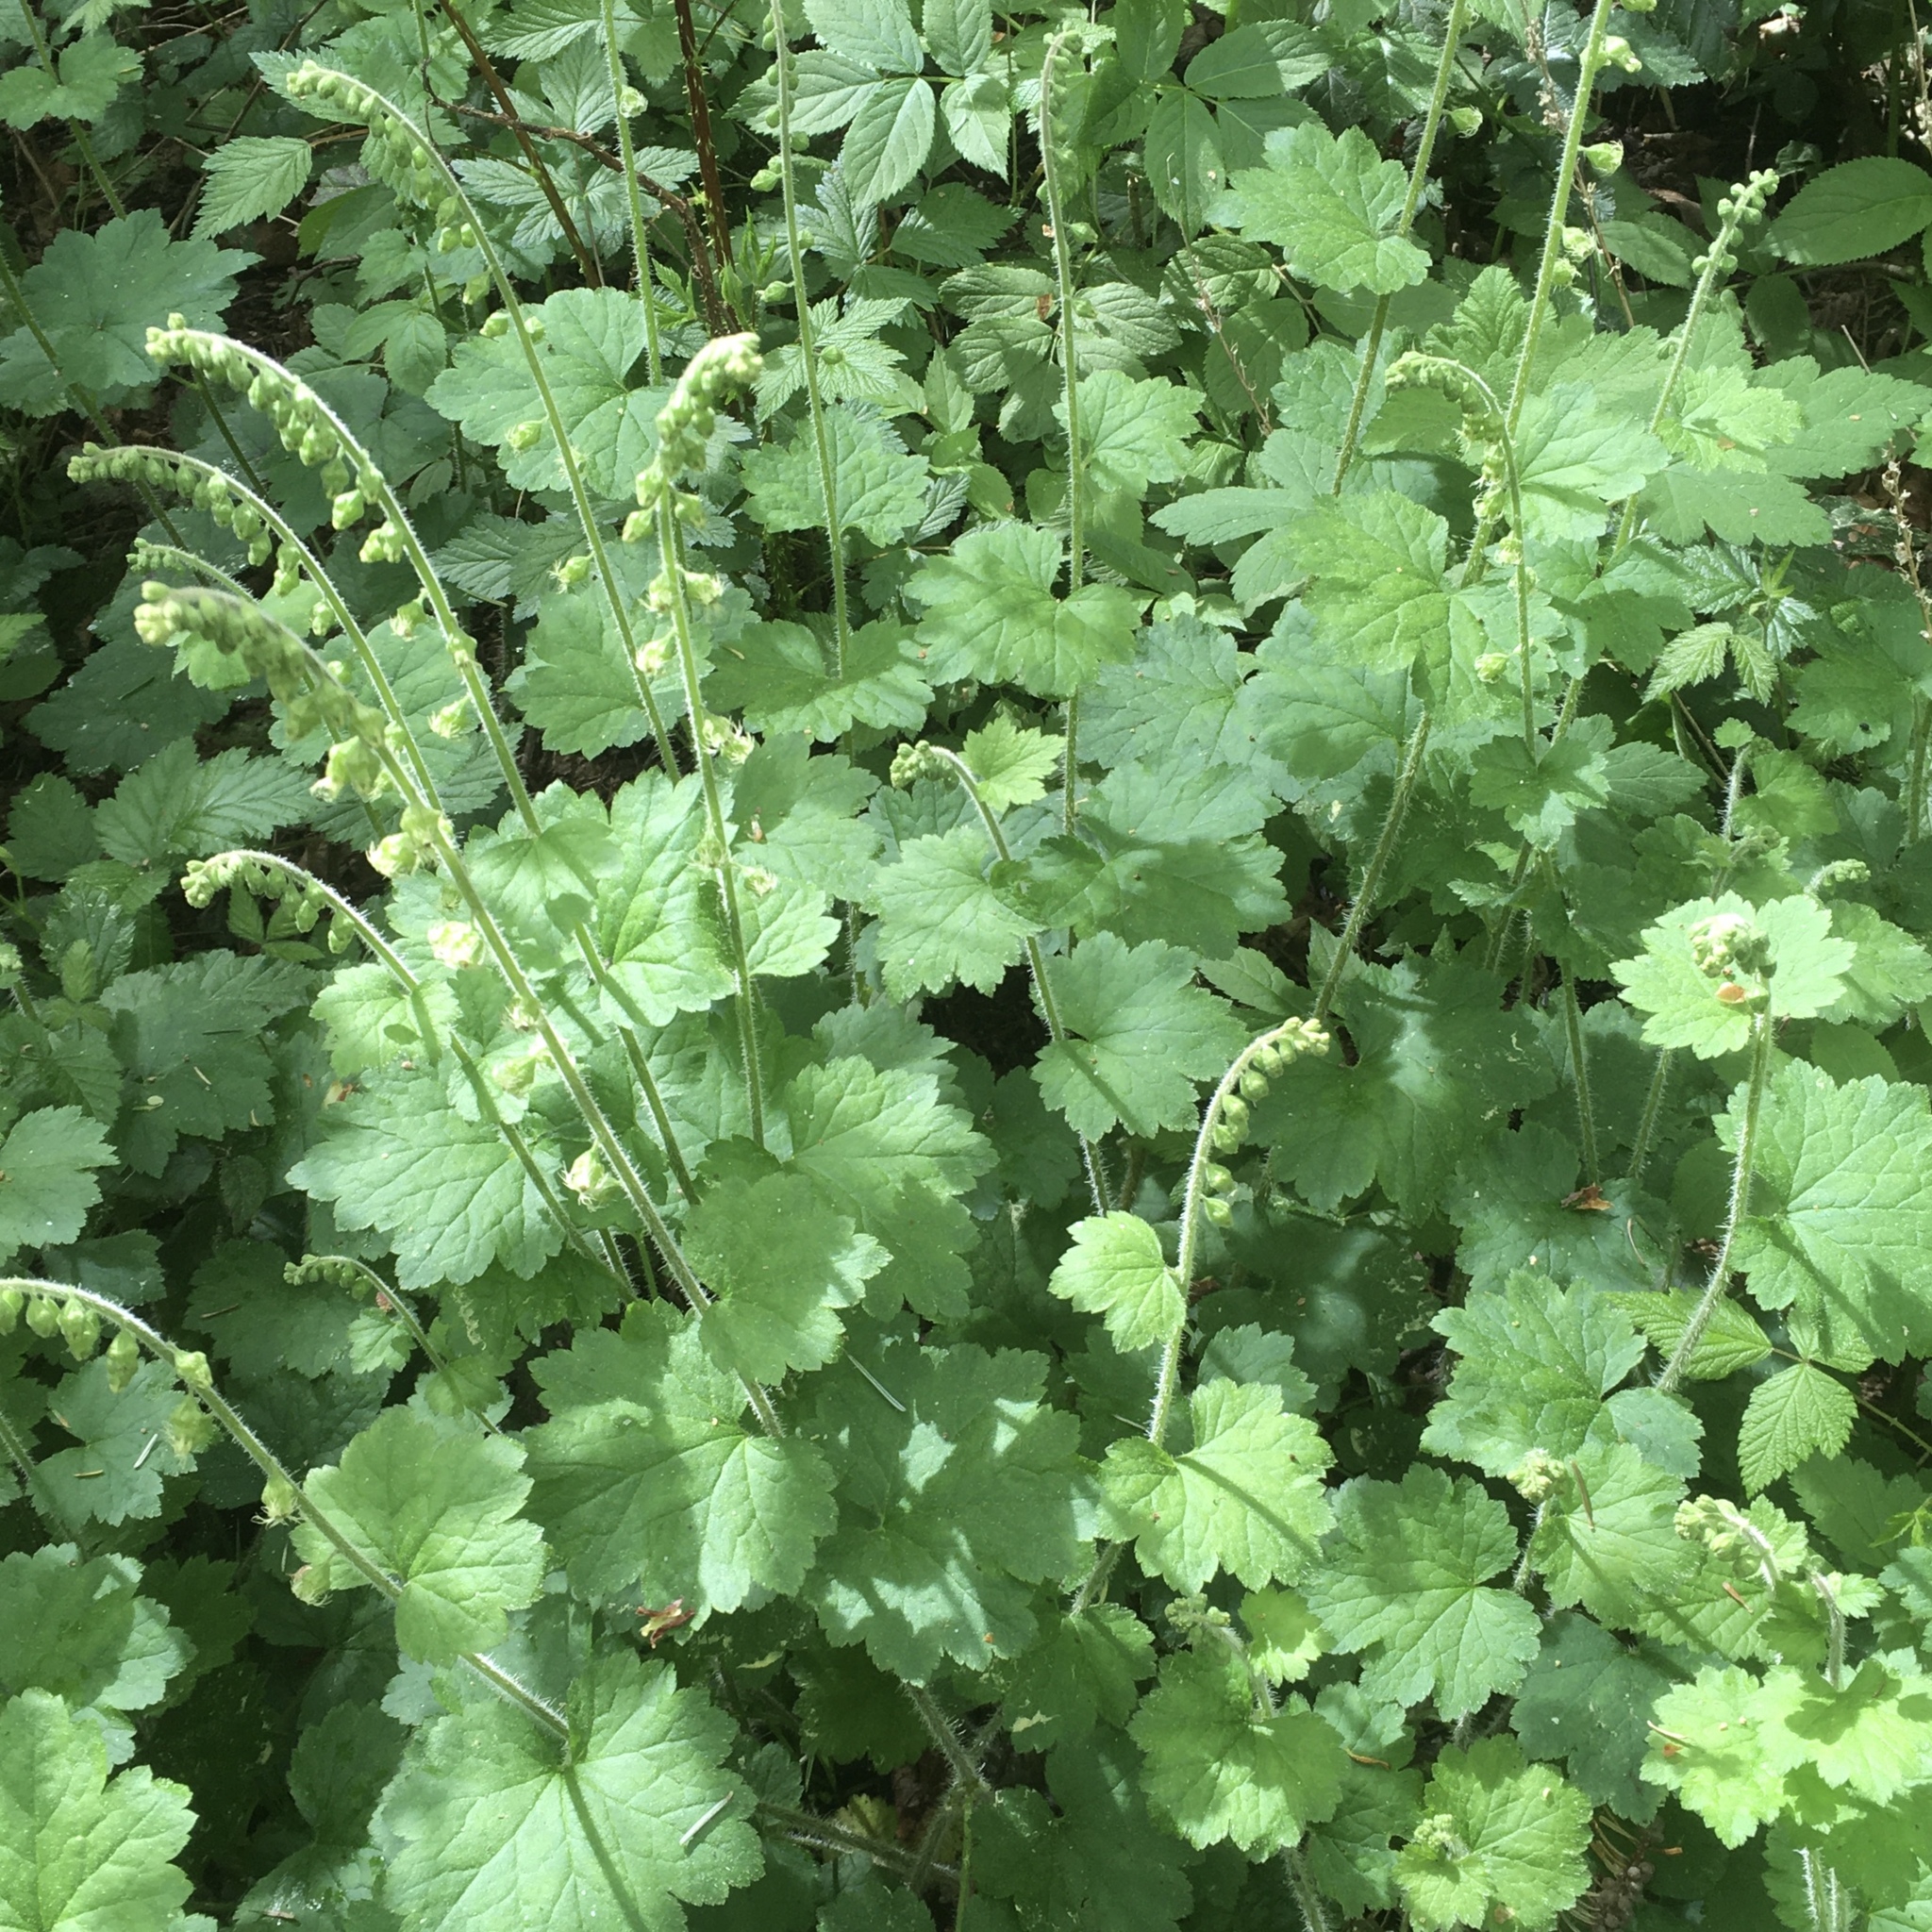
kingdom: Plantae
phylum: Tracheophyta
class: Magnoliopsida
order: Saxifragales
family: Saxifragaceae
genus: Tellima
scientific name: Tellima grandiflora
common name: Fringecups
